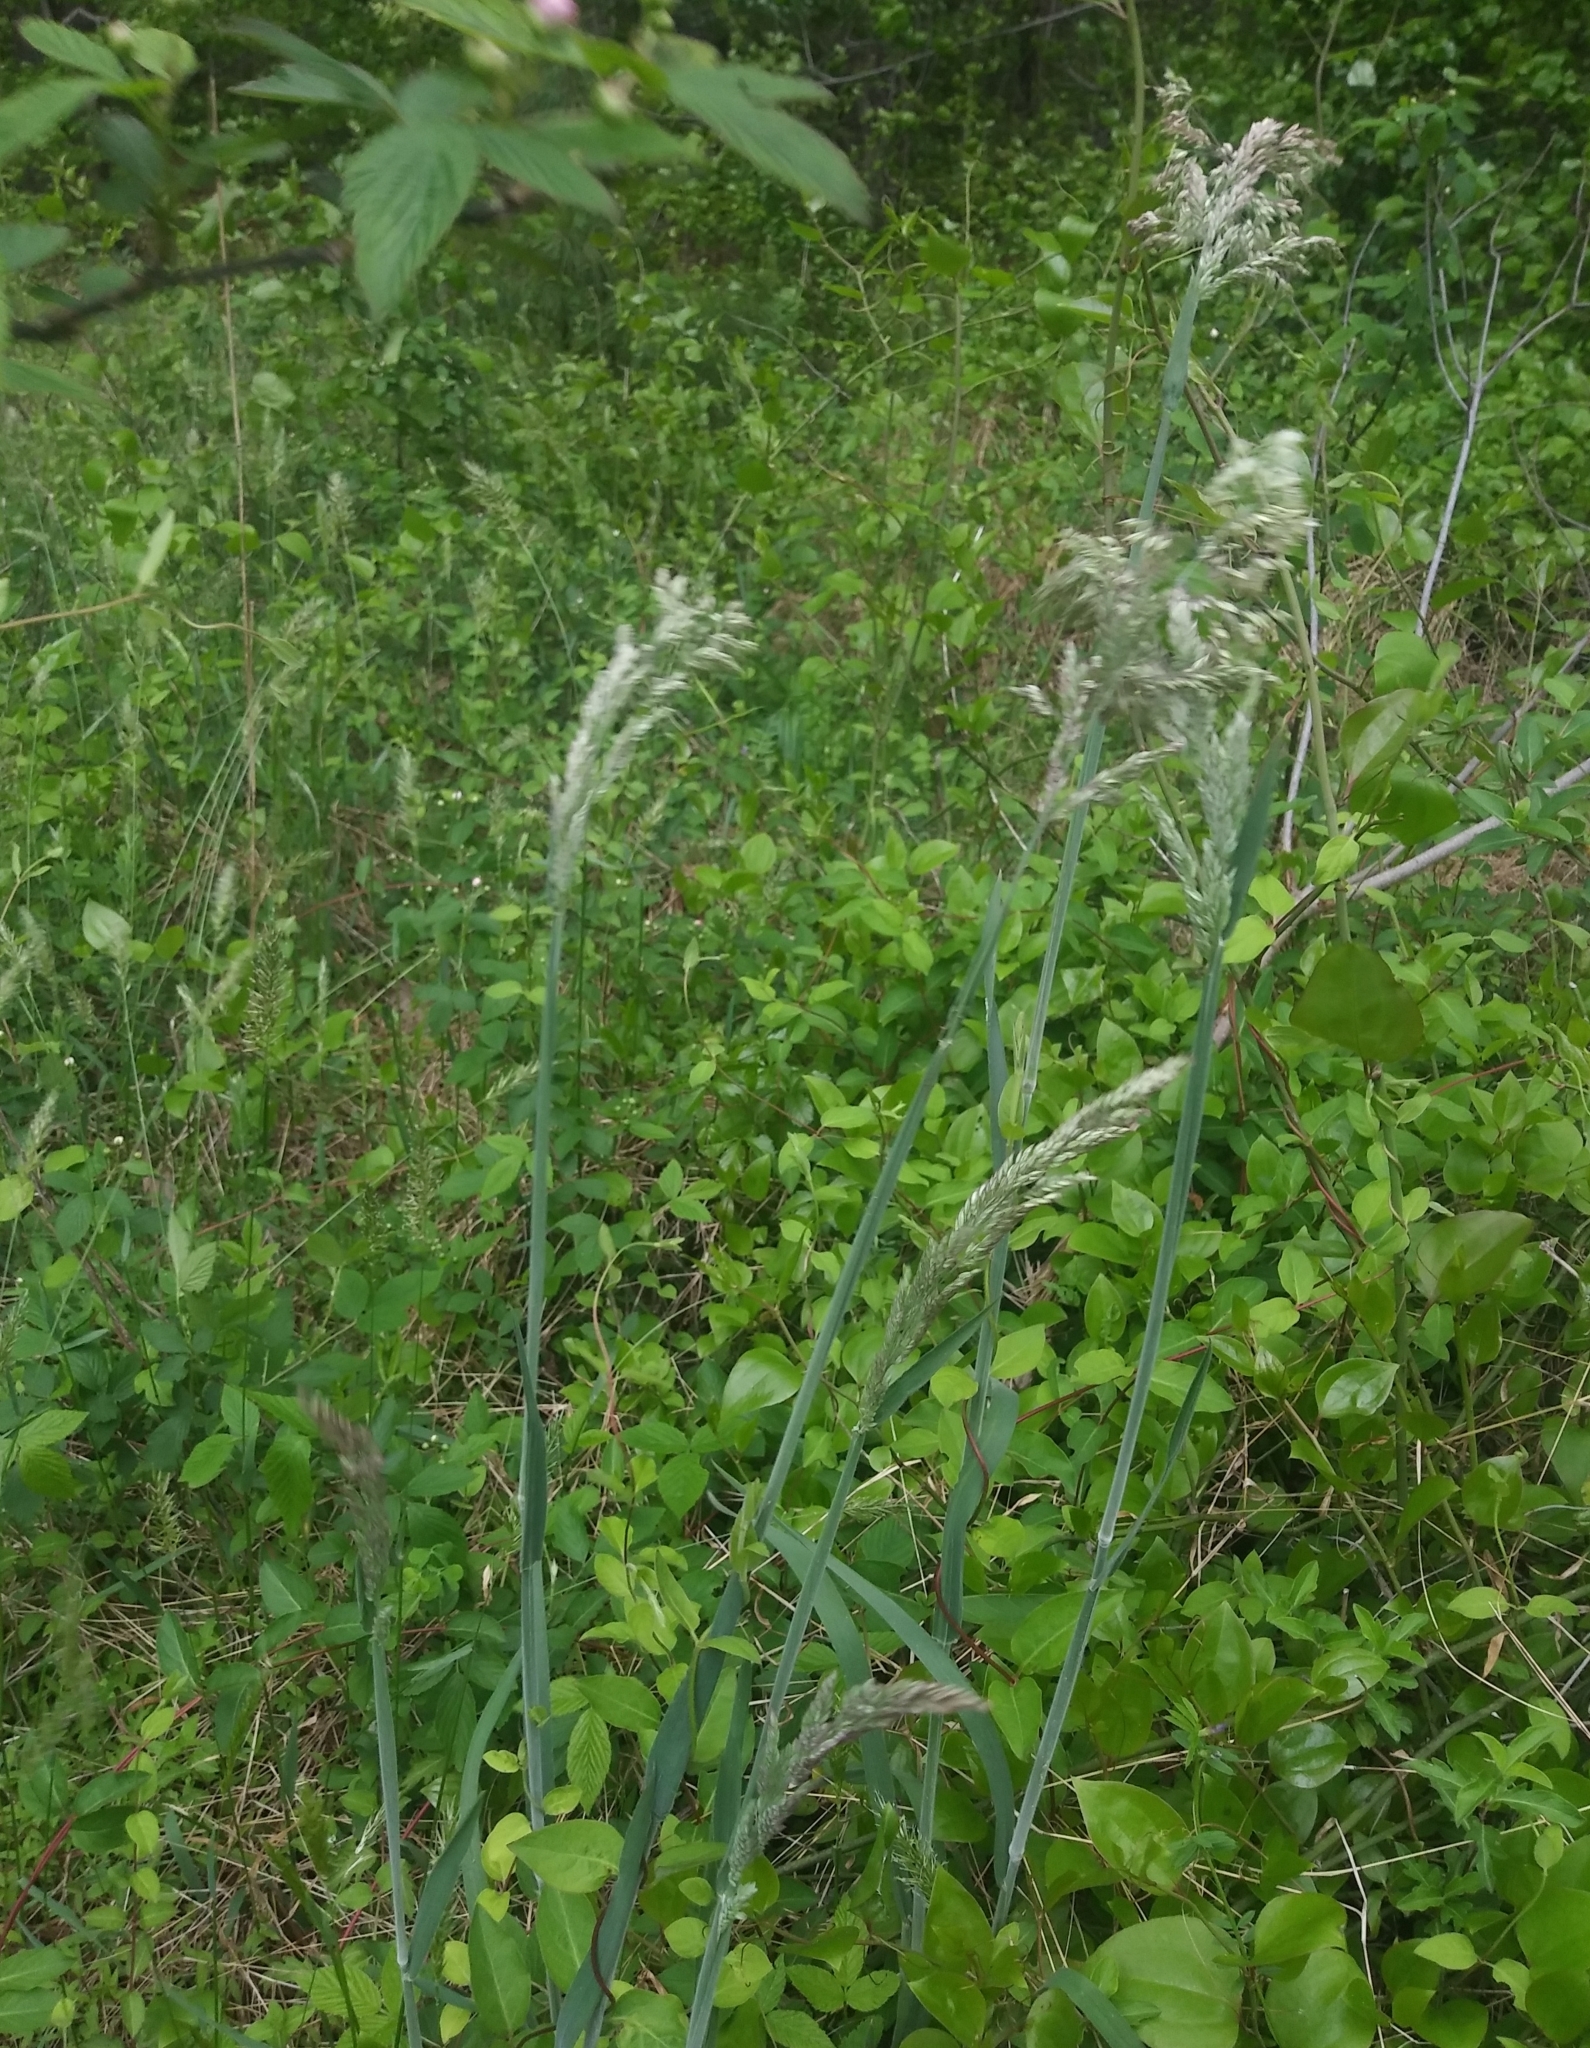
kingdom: Plantae
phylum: Tracheophyta
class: Liliopsida
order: Poales
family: Poaceae
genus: Holcus
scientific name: Holcus lanatus
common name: Yorkshire-fog
